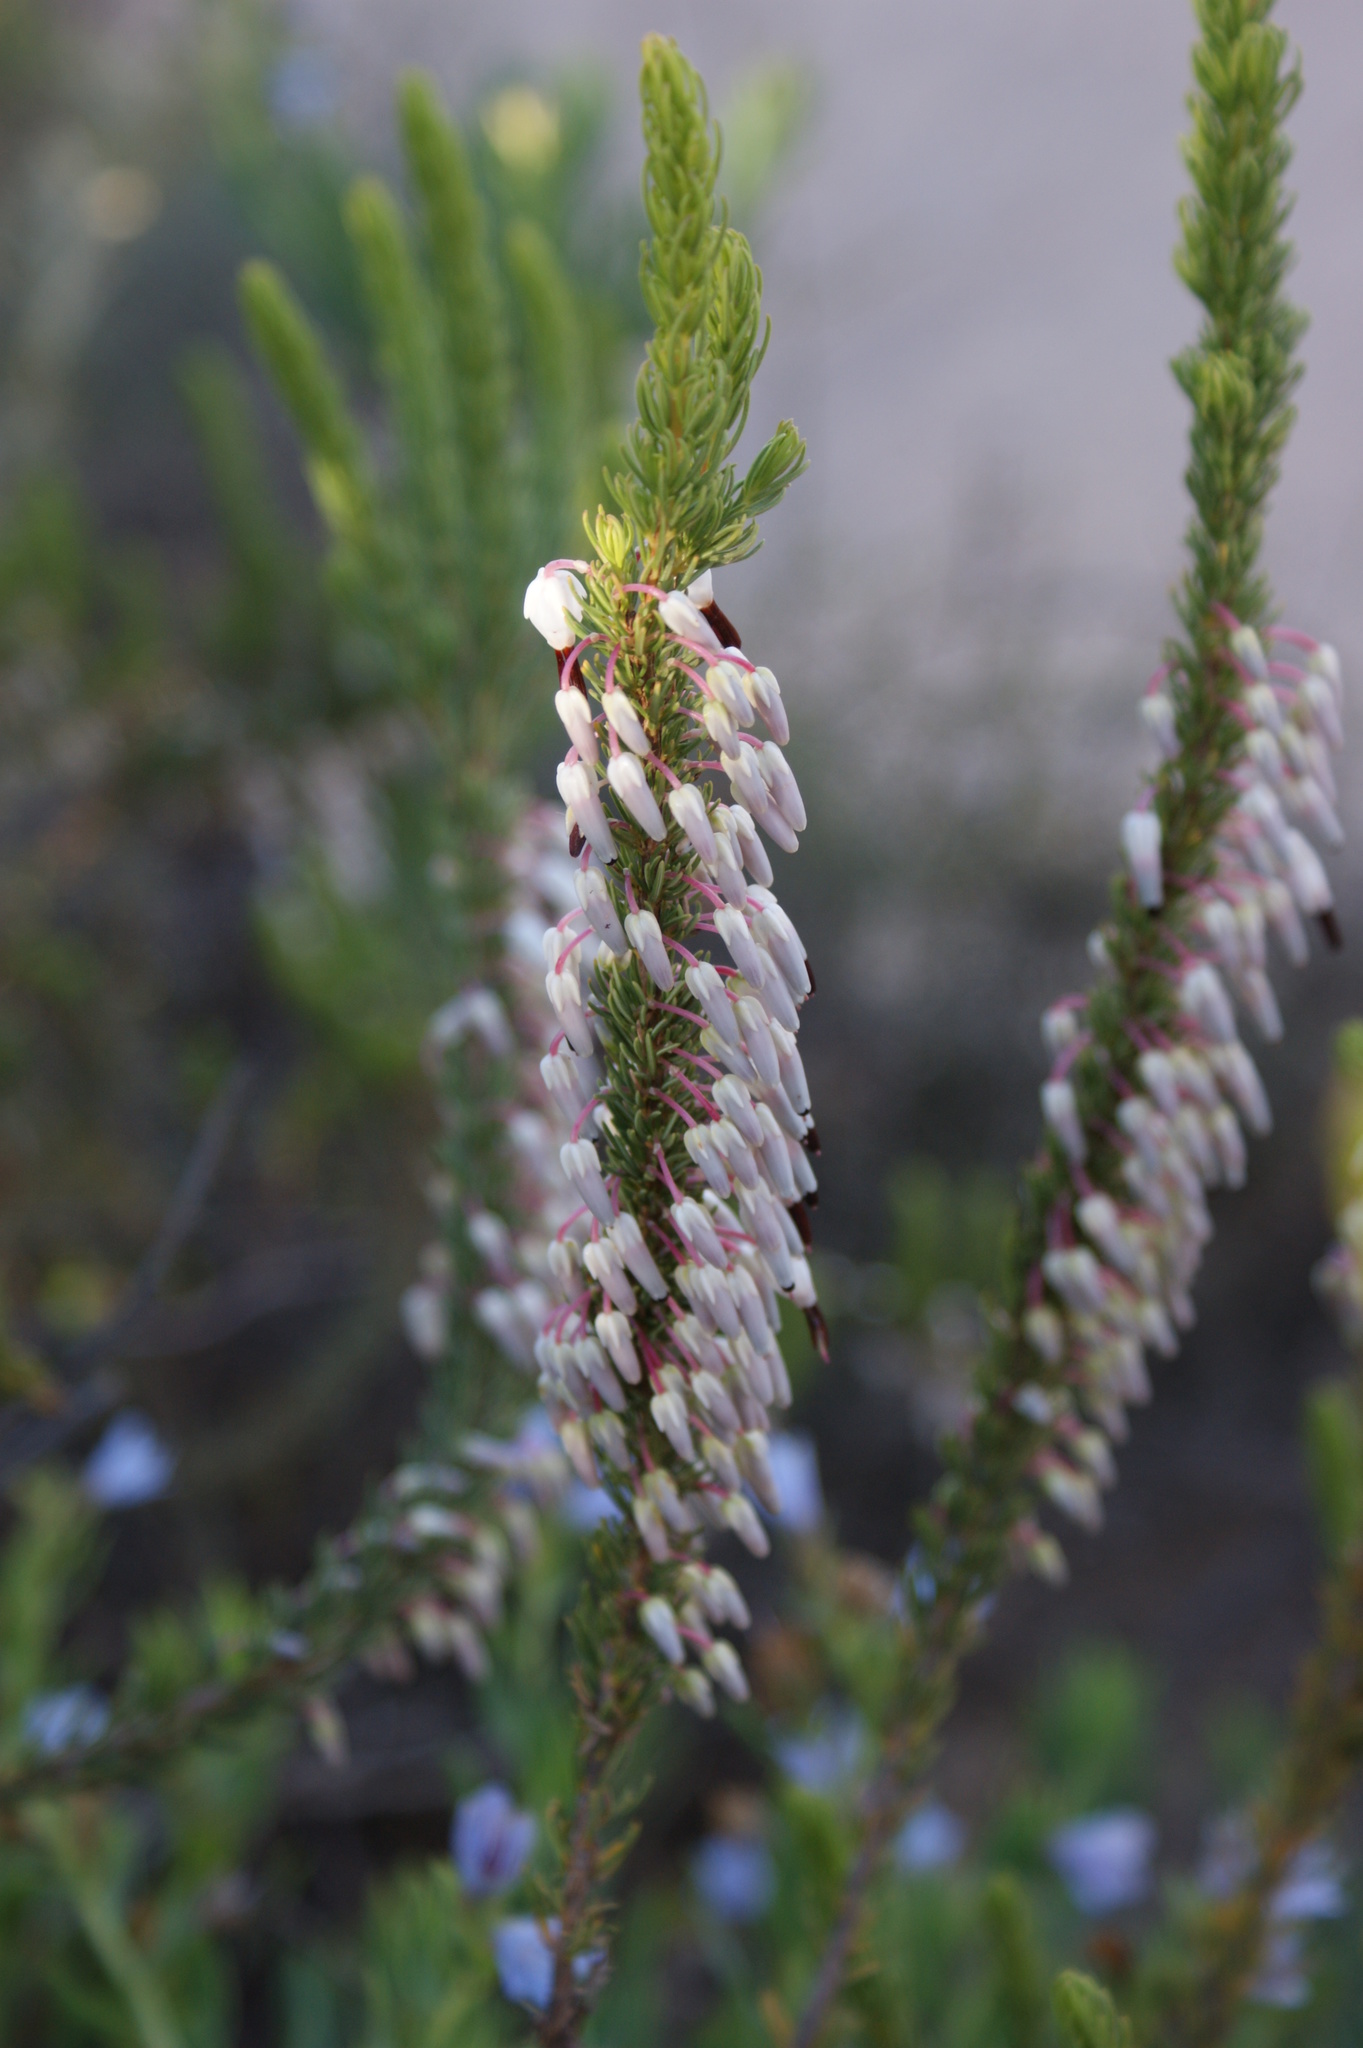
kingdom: Plantae
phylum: Tracheophyta
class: Magnoliopsida
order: Ericales
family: Ericaceae
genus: Erica
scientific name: Erica plukenetii
